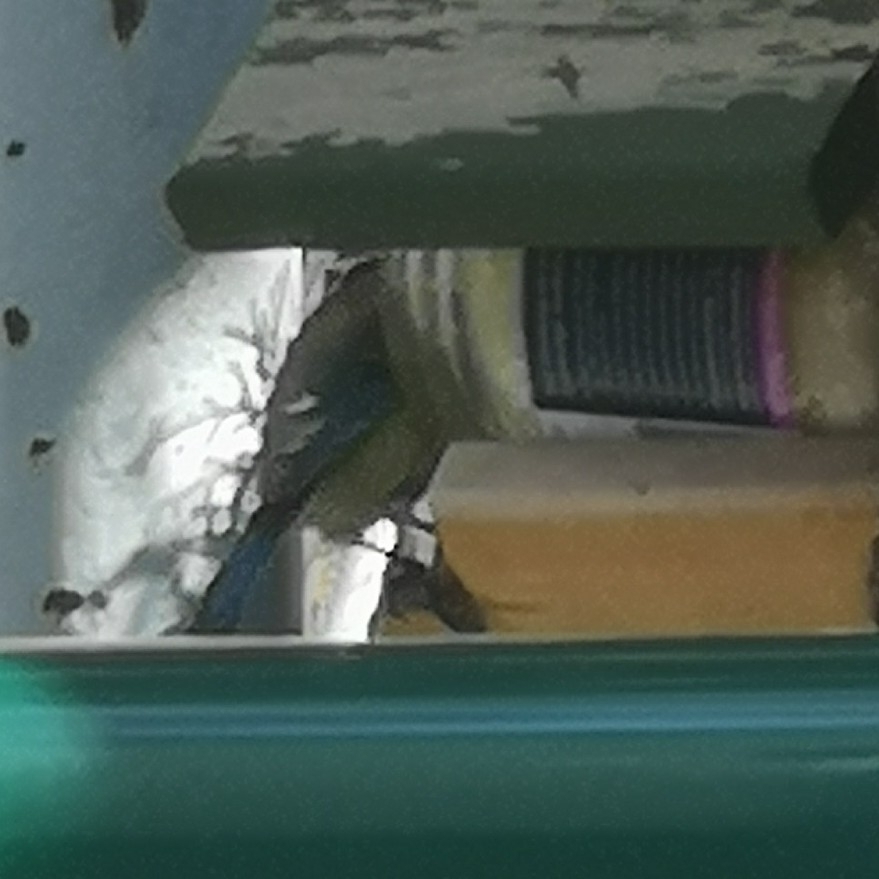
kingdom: Animalia
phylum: Chordata
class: Aves
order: Passeriformes
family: Paridae
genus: Cyanistes
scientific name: Cyanistes caeruleus
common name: Eurasian blue tit
